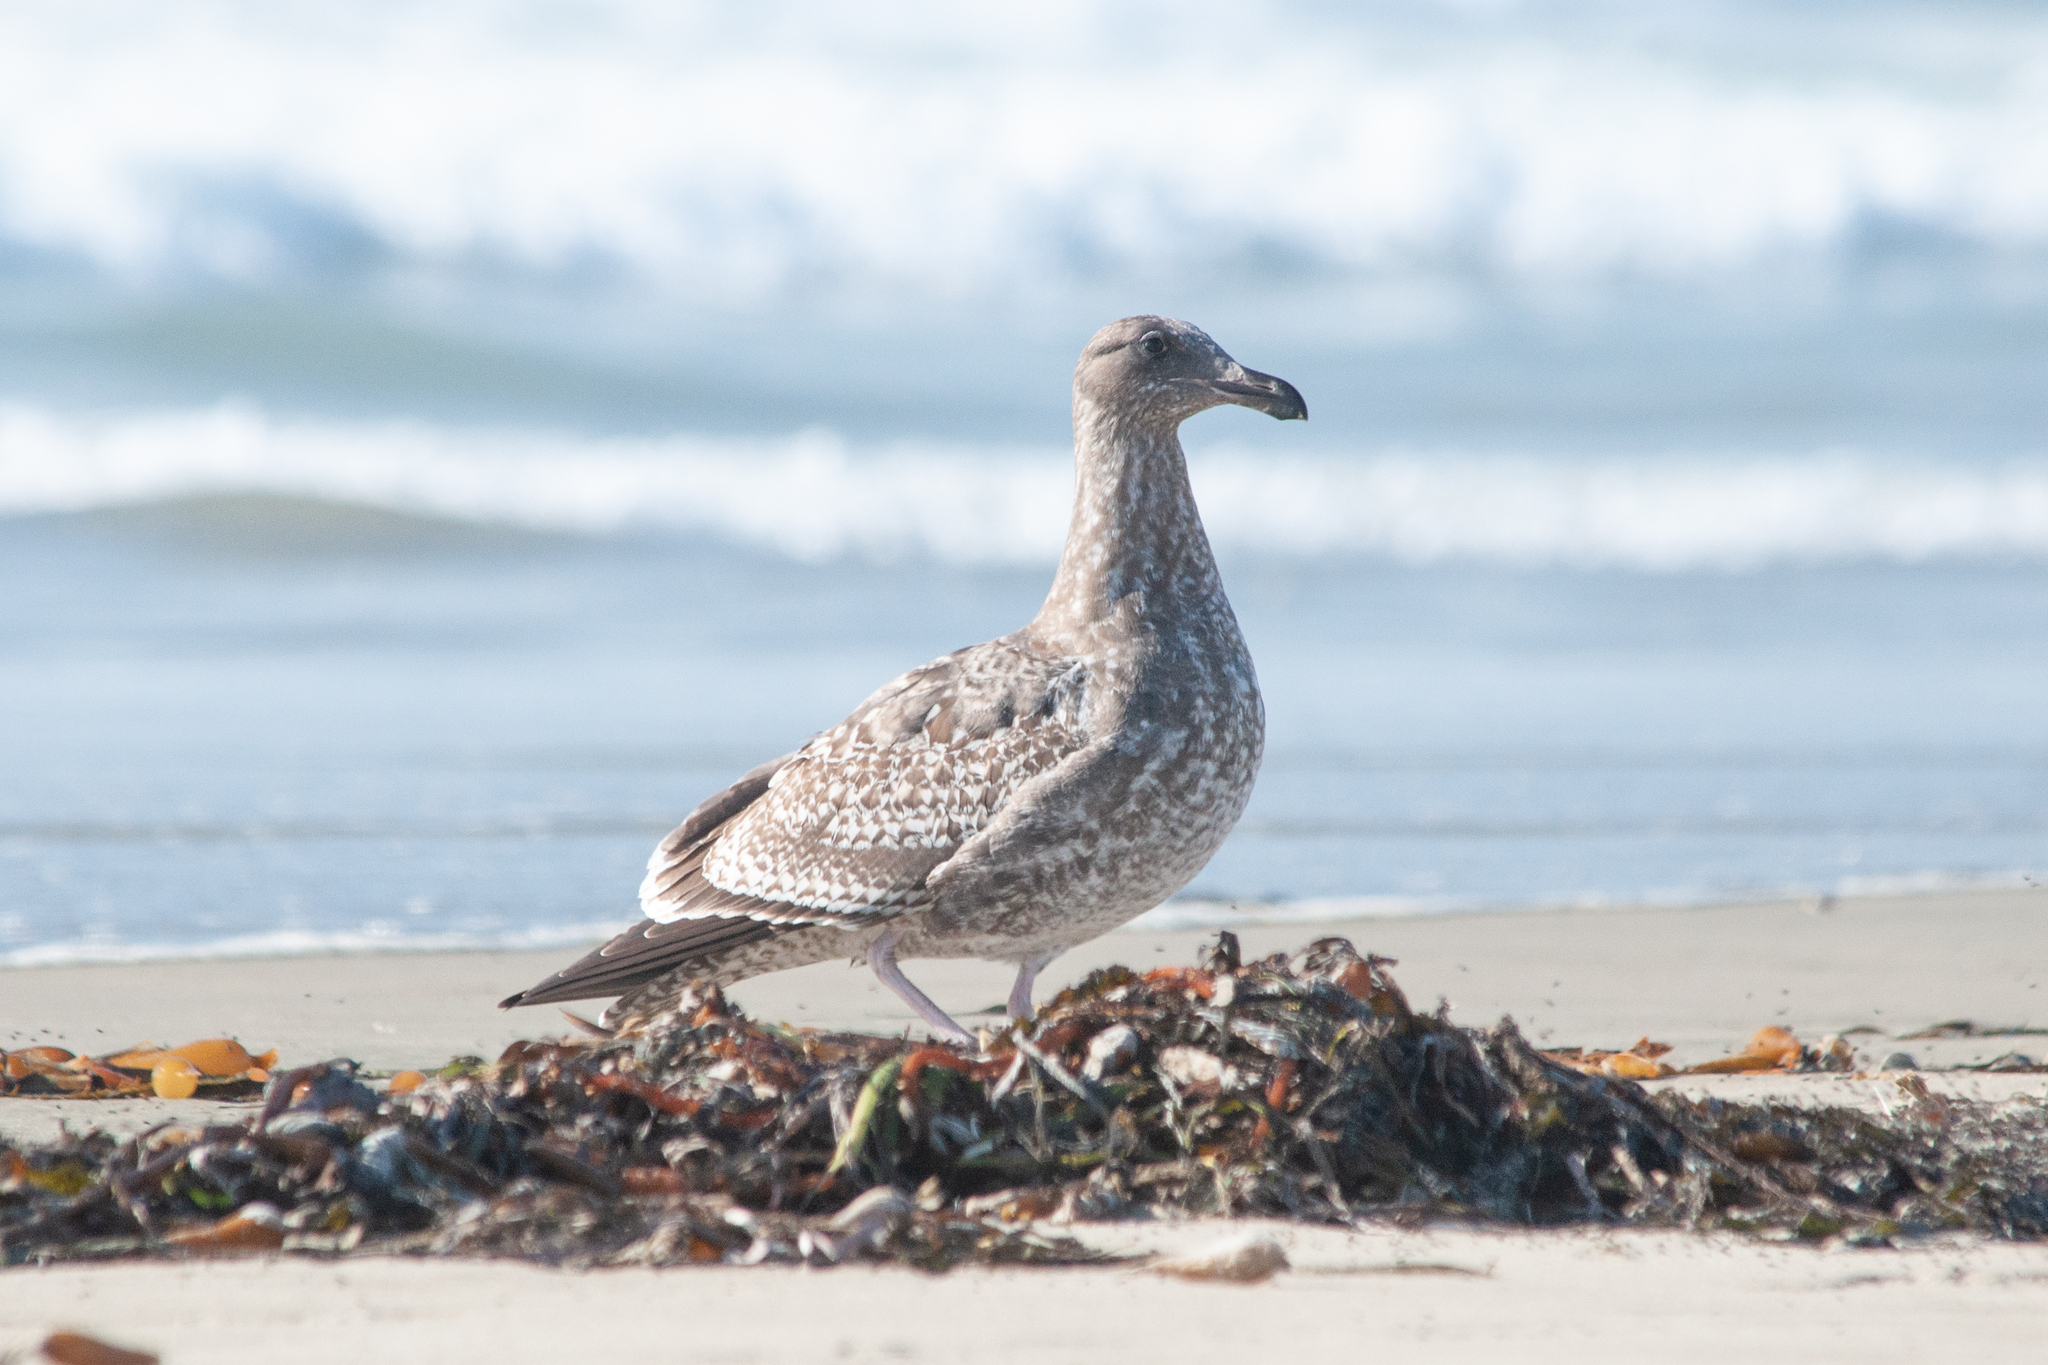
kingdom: Animalia
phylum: Chordata
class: Aves
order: Charadriiformes
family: Laridae
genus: Larus
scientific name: Larus occidentalis
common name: Western gull
